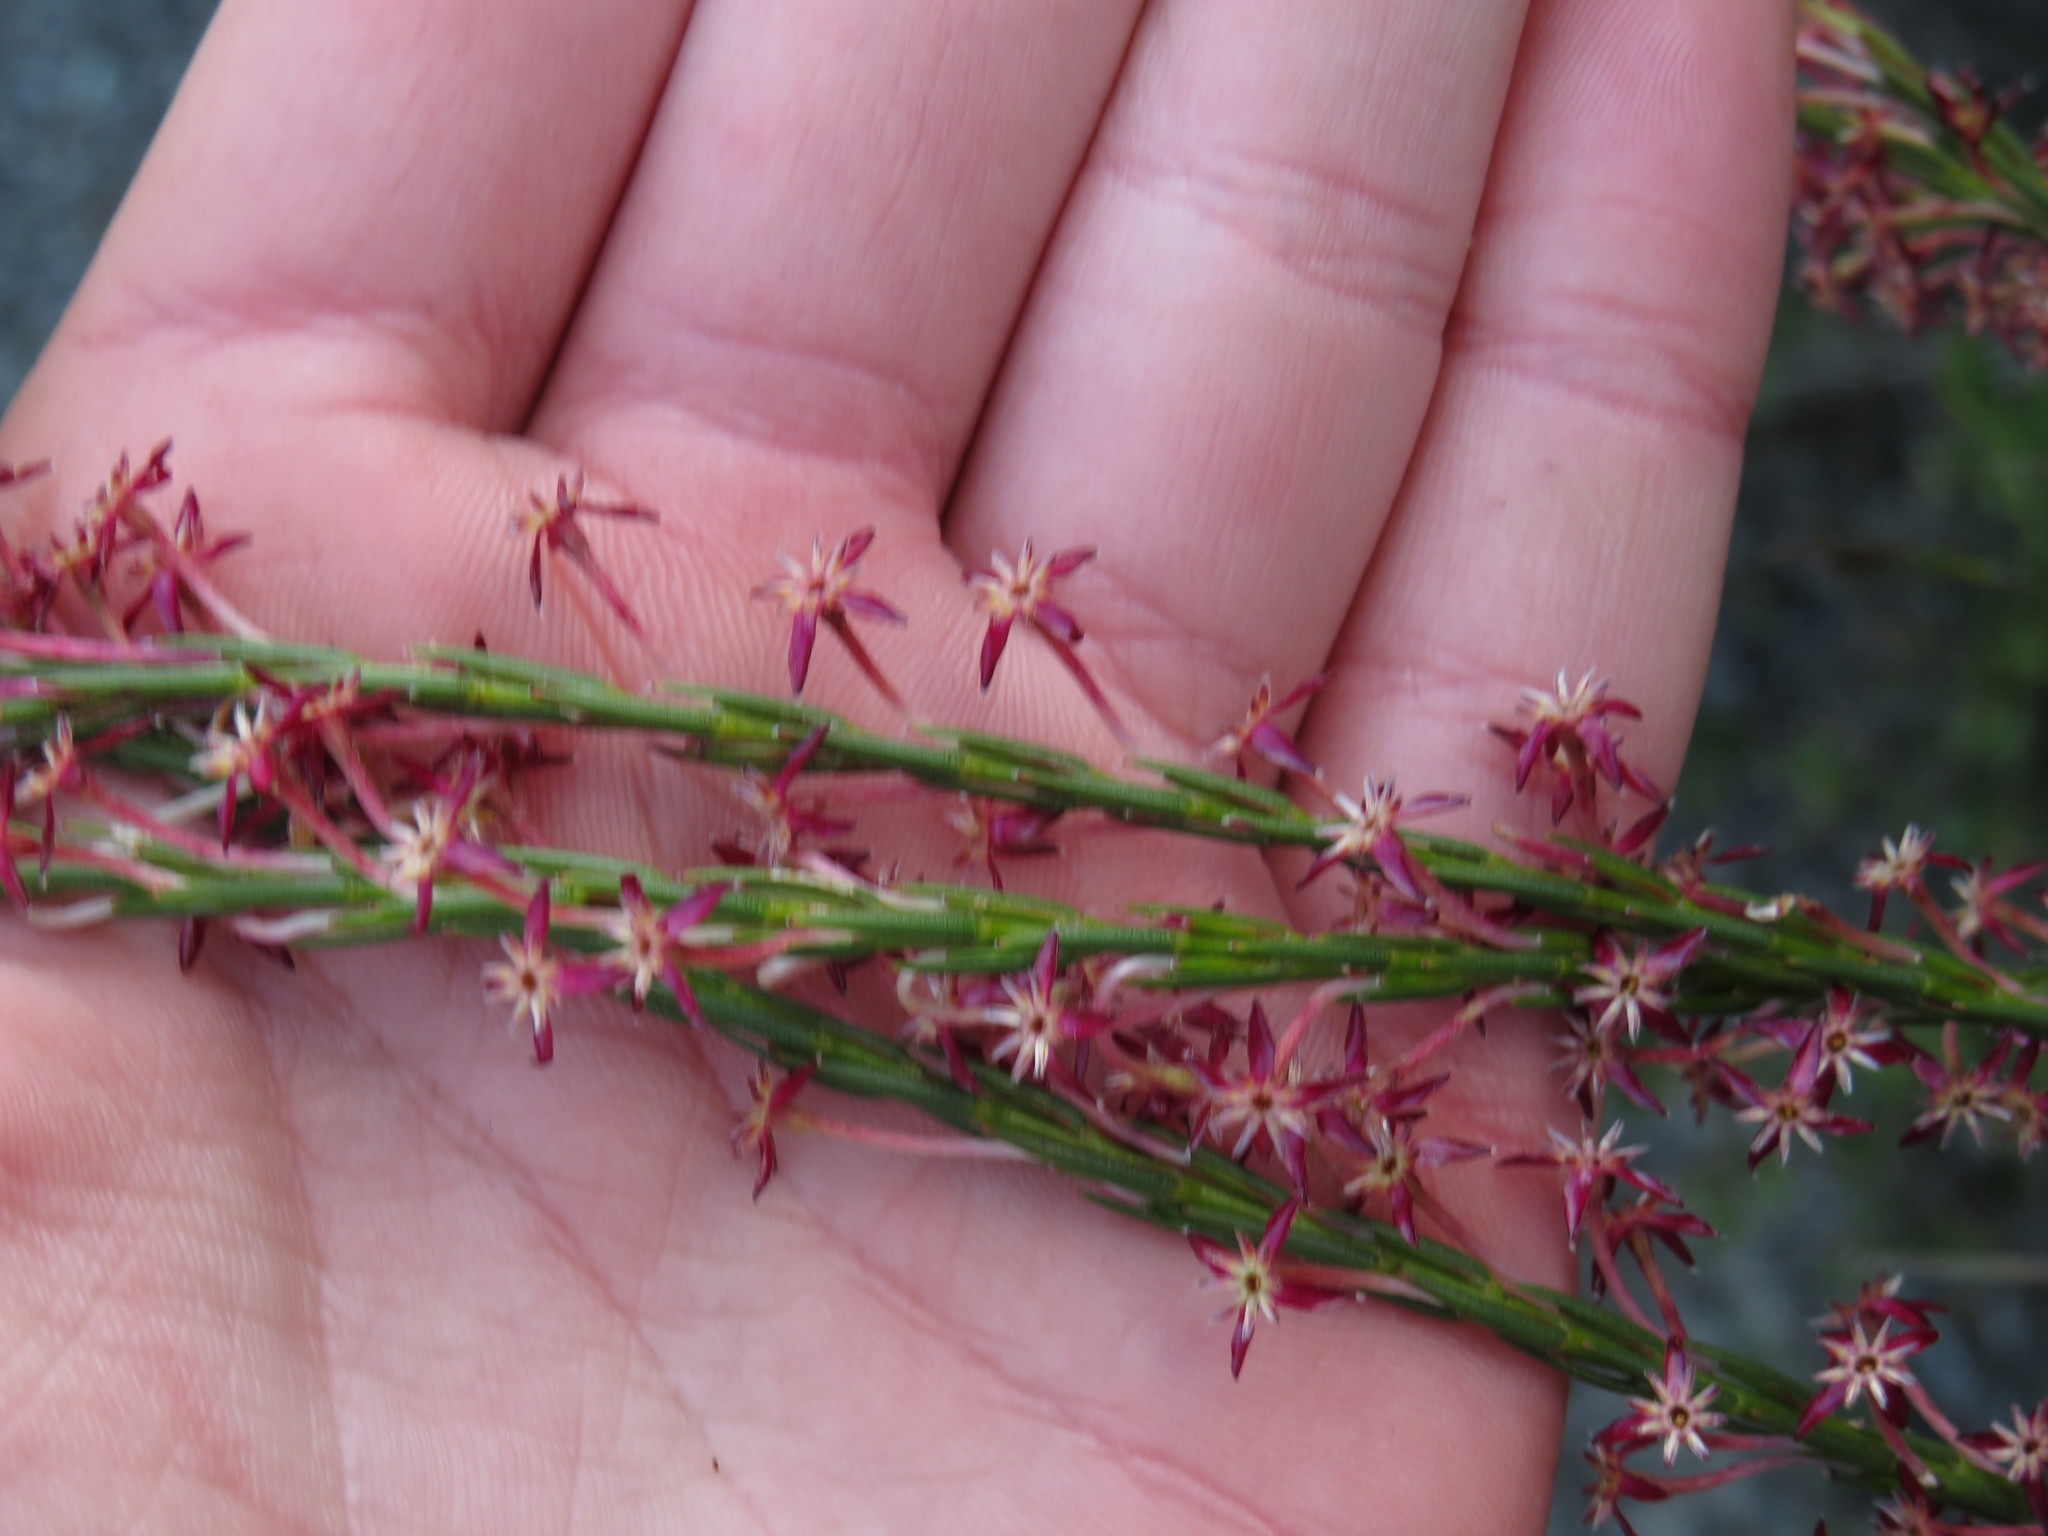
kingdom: Plantae
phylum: Tracheophyta
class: Magnoliopsida
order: Malvales
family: Thymelaeaceae
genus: Struthiola
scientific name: Struthiola macowanii
